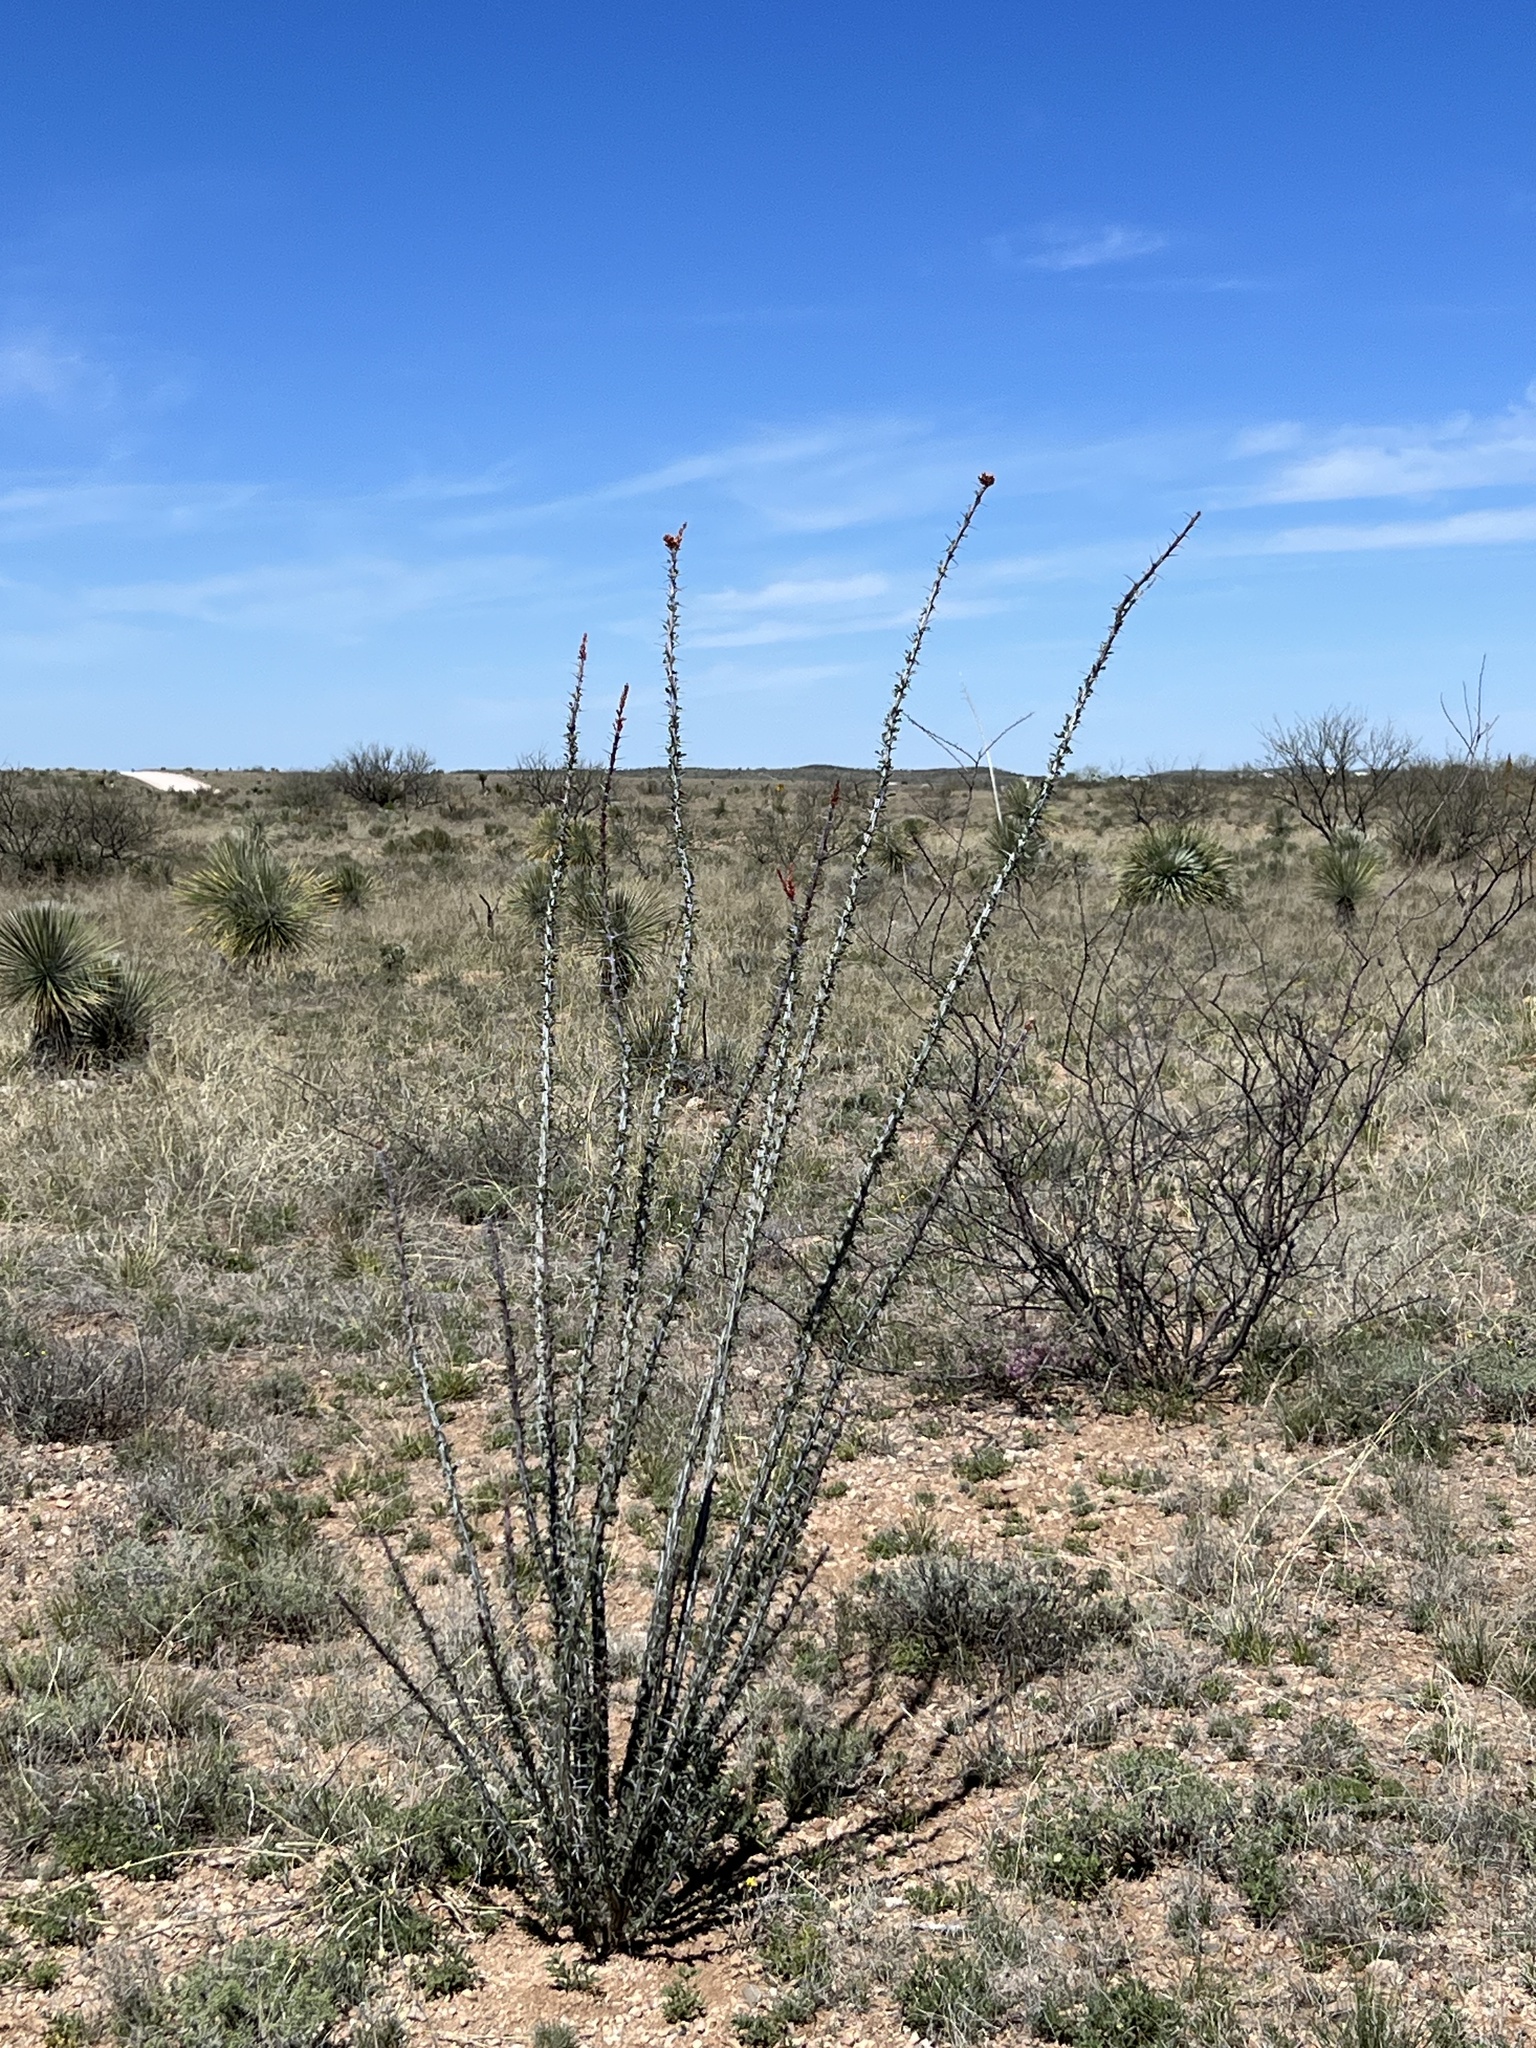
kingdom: Plantae
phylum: Tracheophyta
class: Magnoliopsida
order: Ericales
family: Fouquieriaceae
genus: Fouquieria
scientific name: Fouquieria splendens
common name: Vine-cactus
